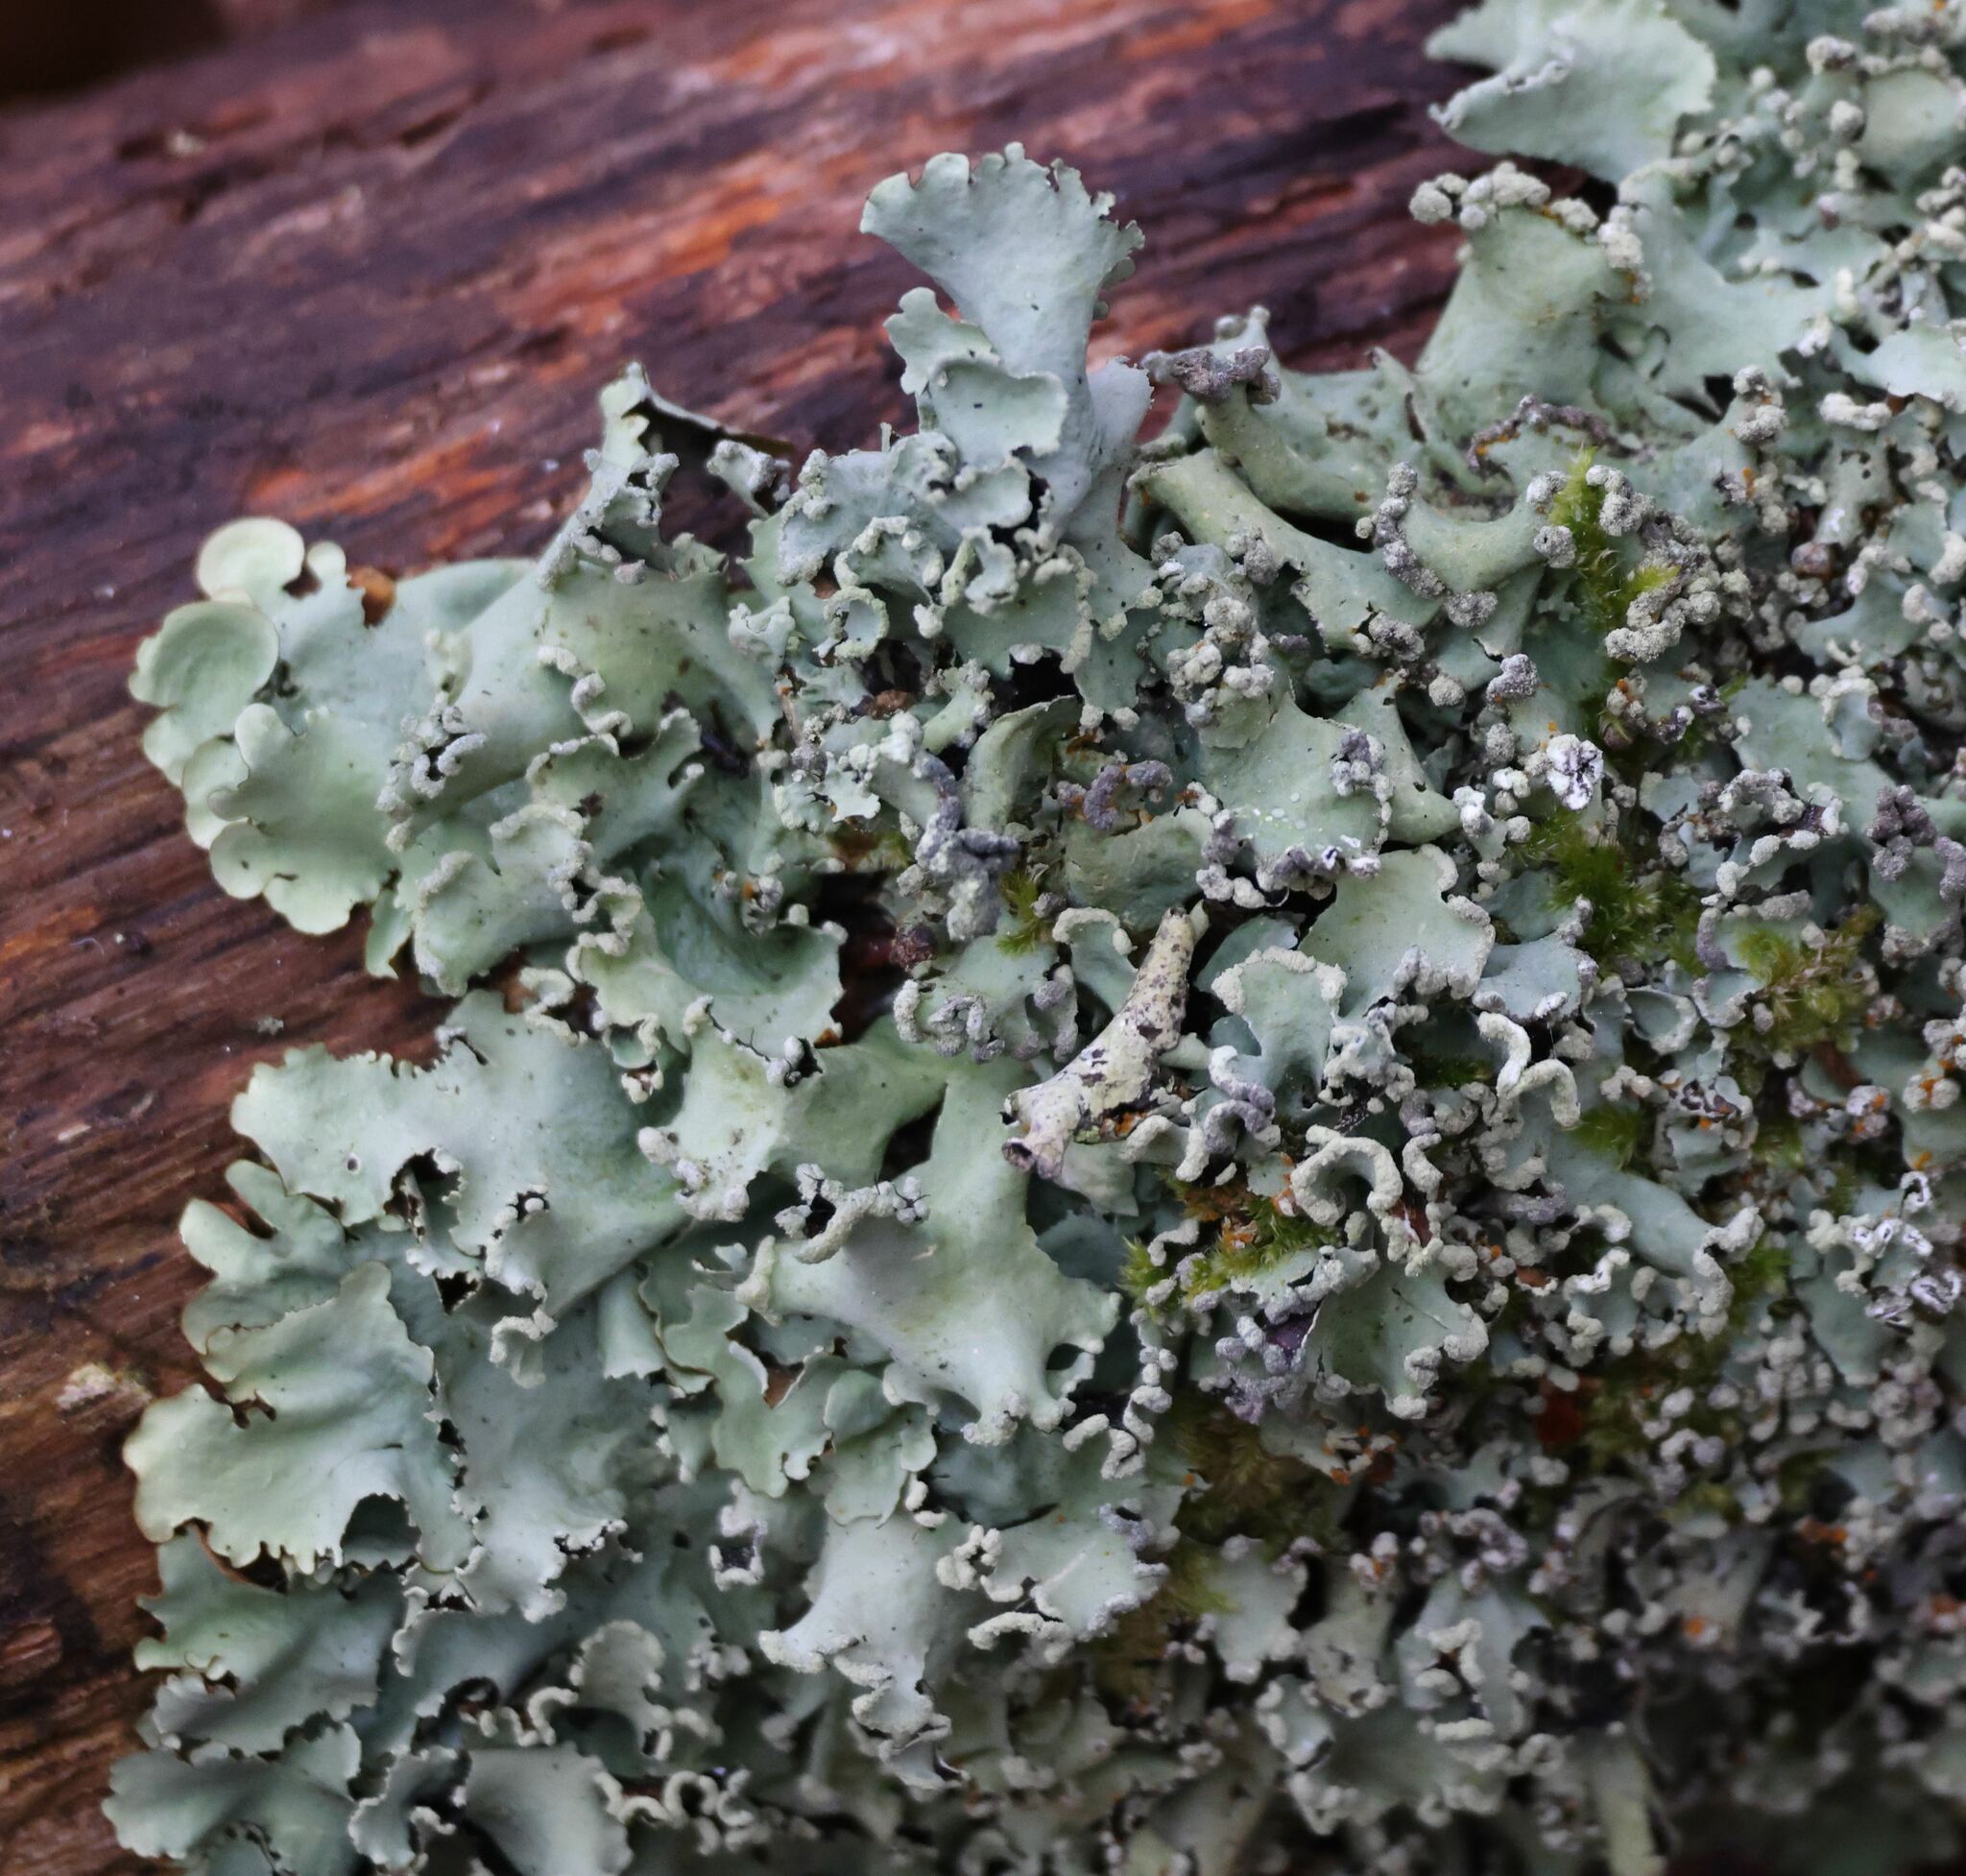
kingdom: Fungi
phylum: Ascomycota
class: Lecanoromycetes
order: Lecanorales
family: Parmeliaceae
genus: Parmotrema
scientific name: Parmotrema perlatum
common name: Black stone flower
